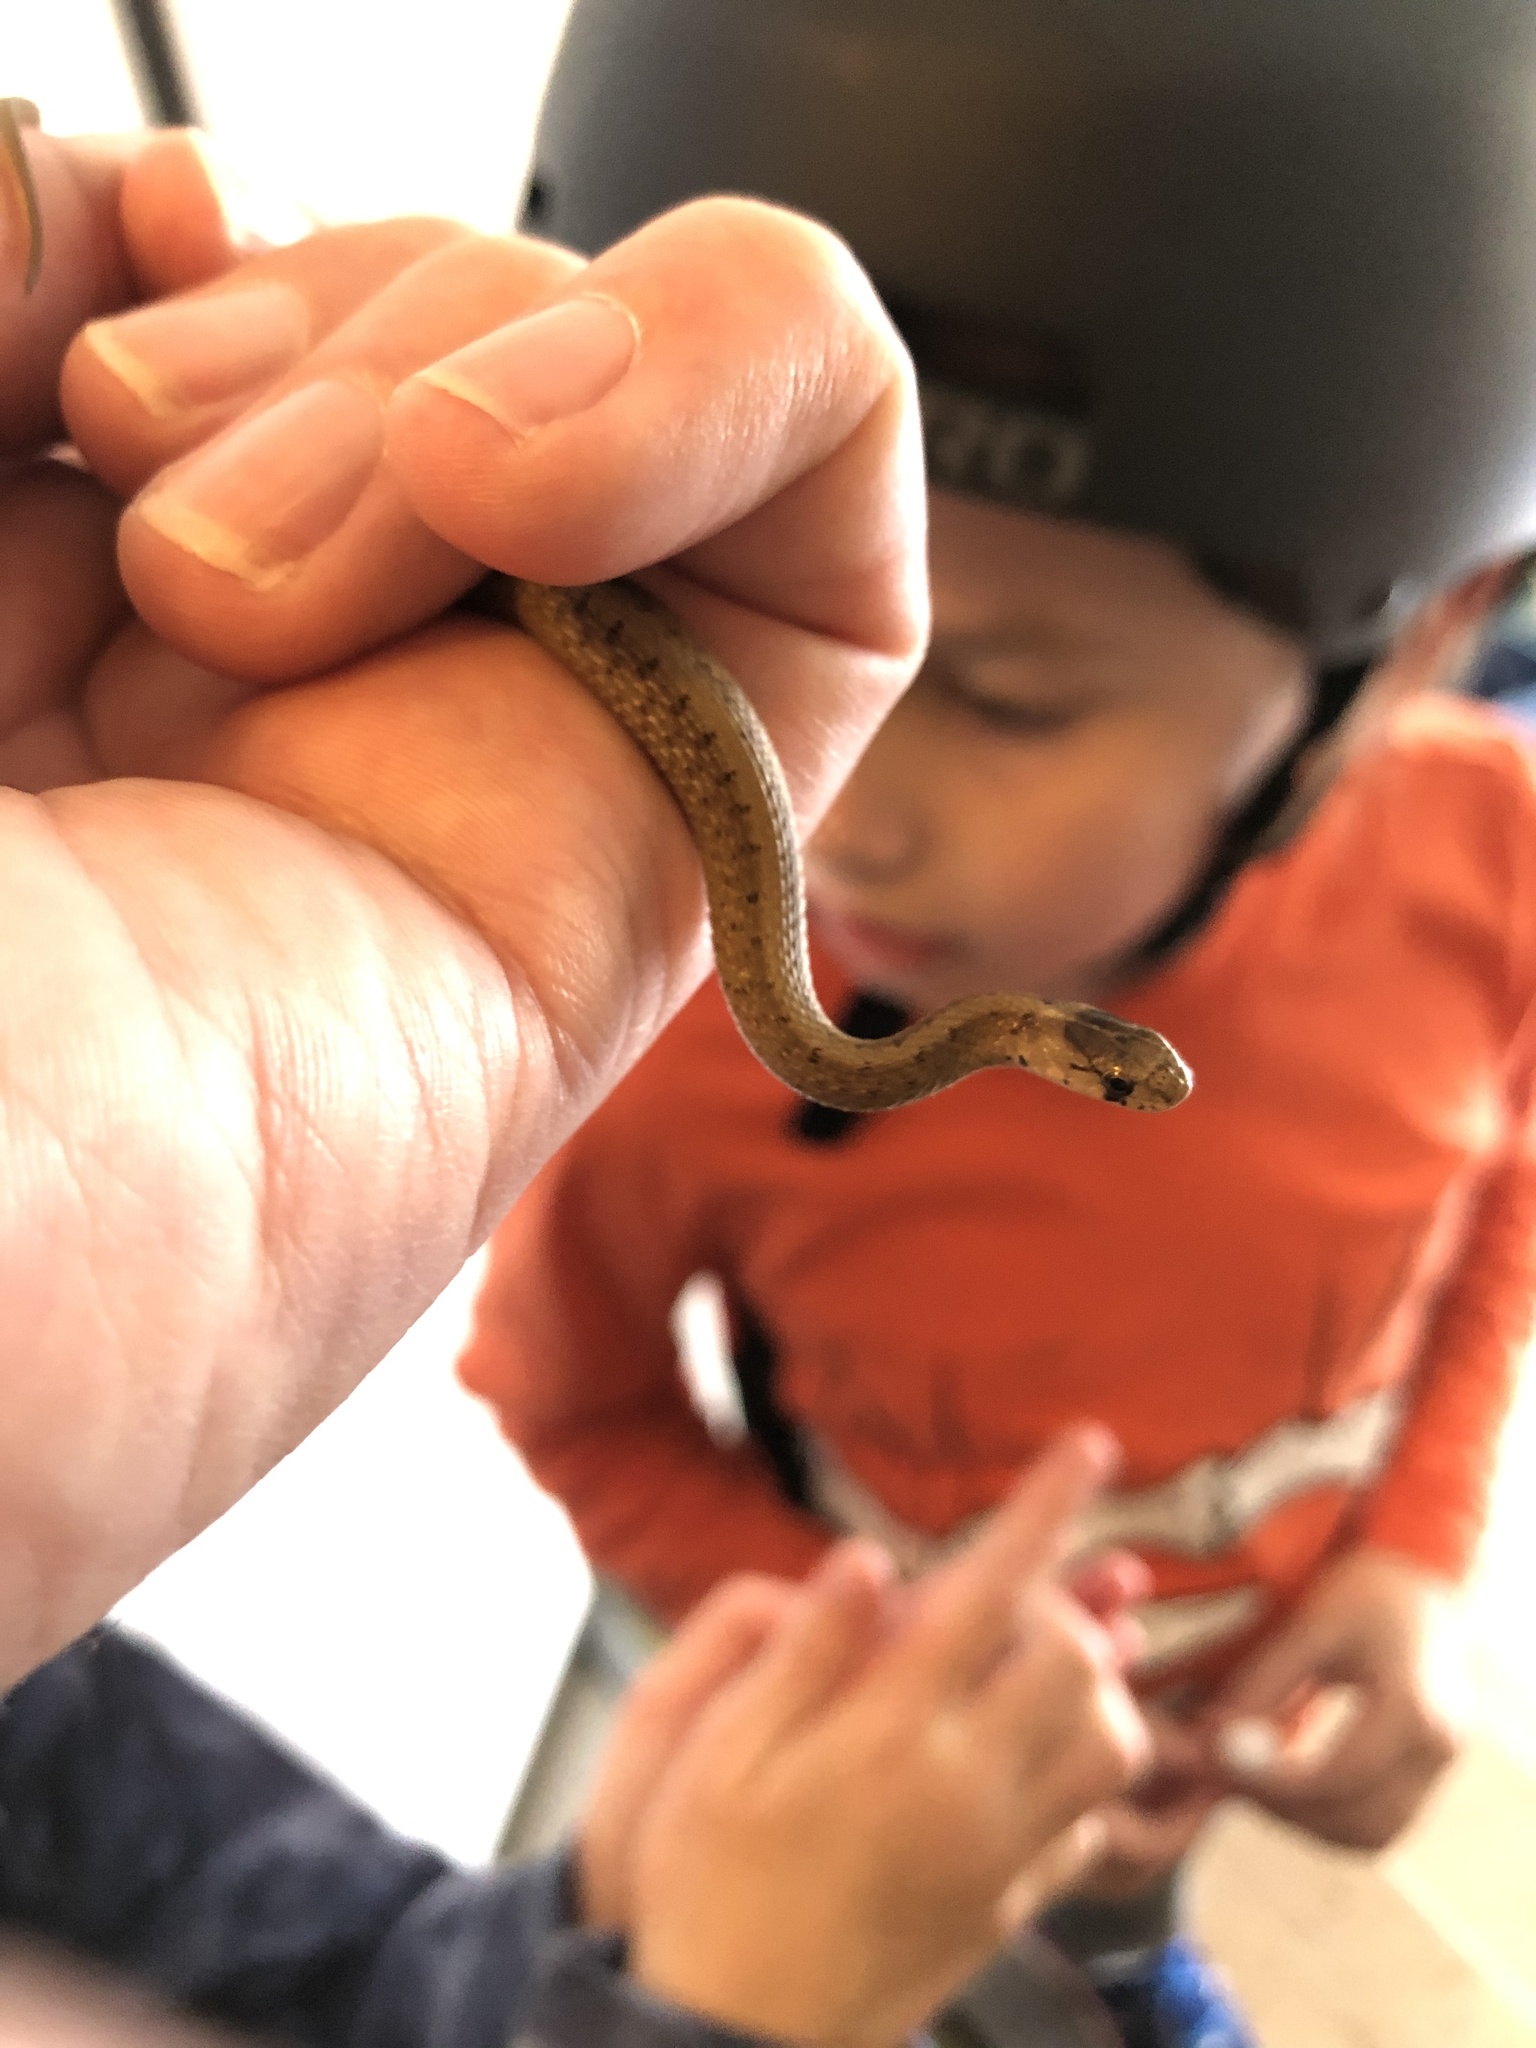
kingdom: Animalia
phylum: Chordata
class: Squamata
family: Colubridae
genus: Storeria
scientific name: Storeria dekayi
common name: (dekay’s) brown snake
